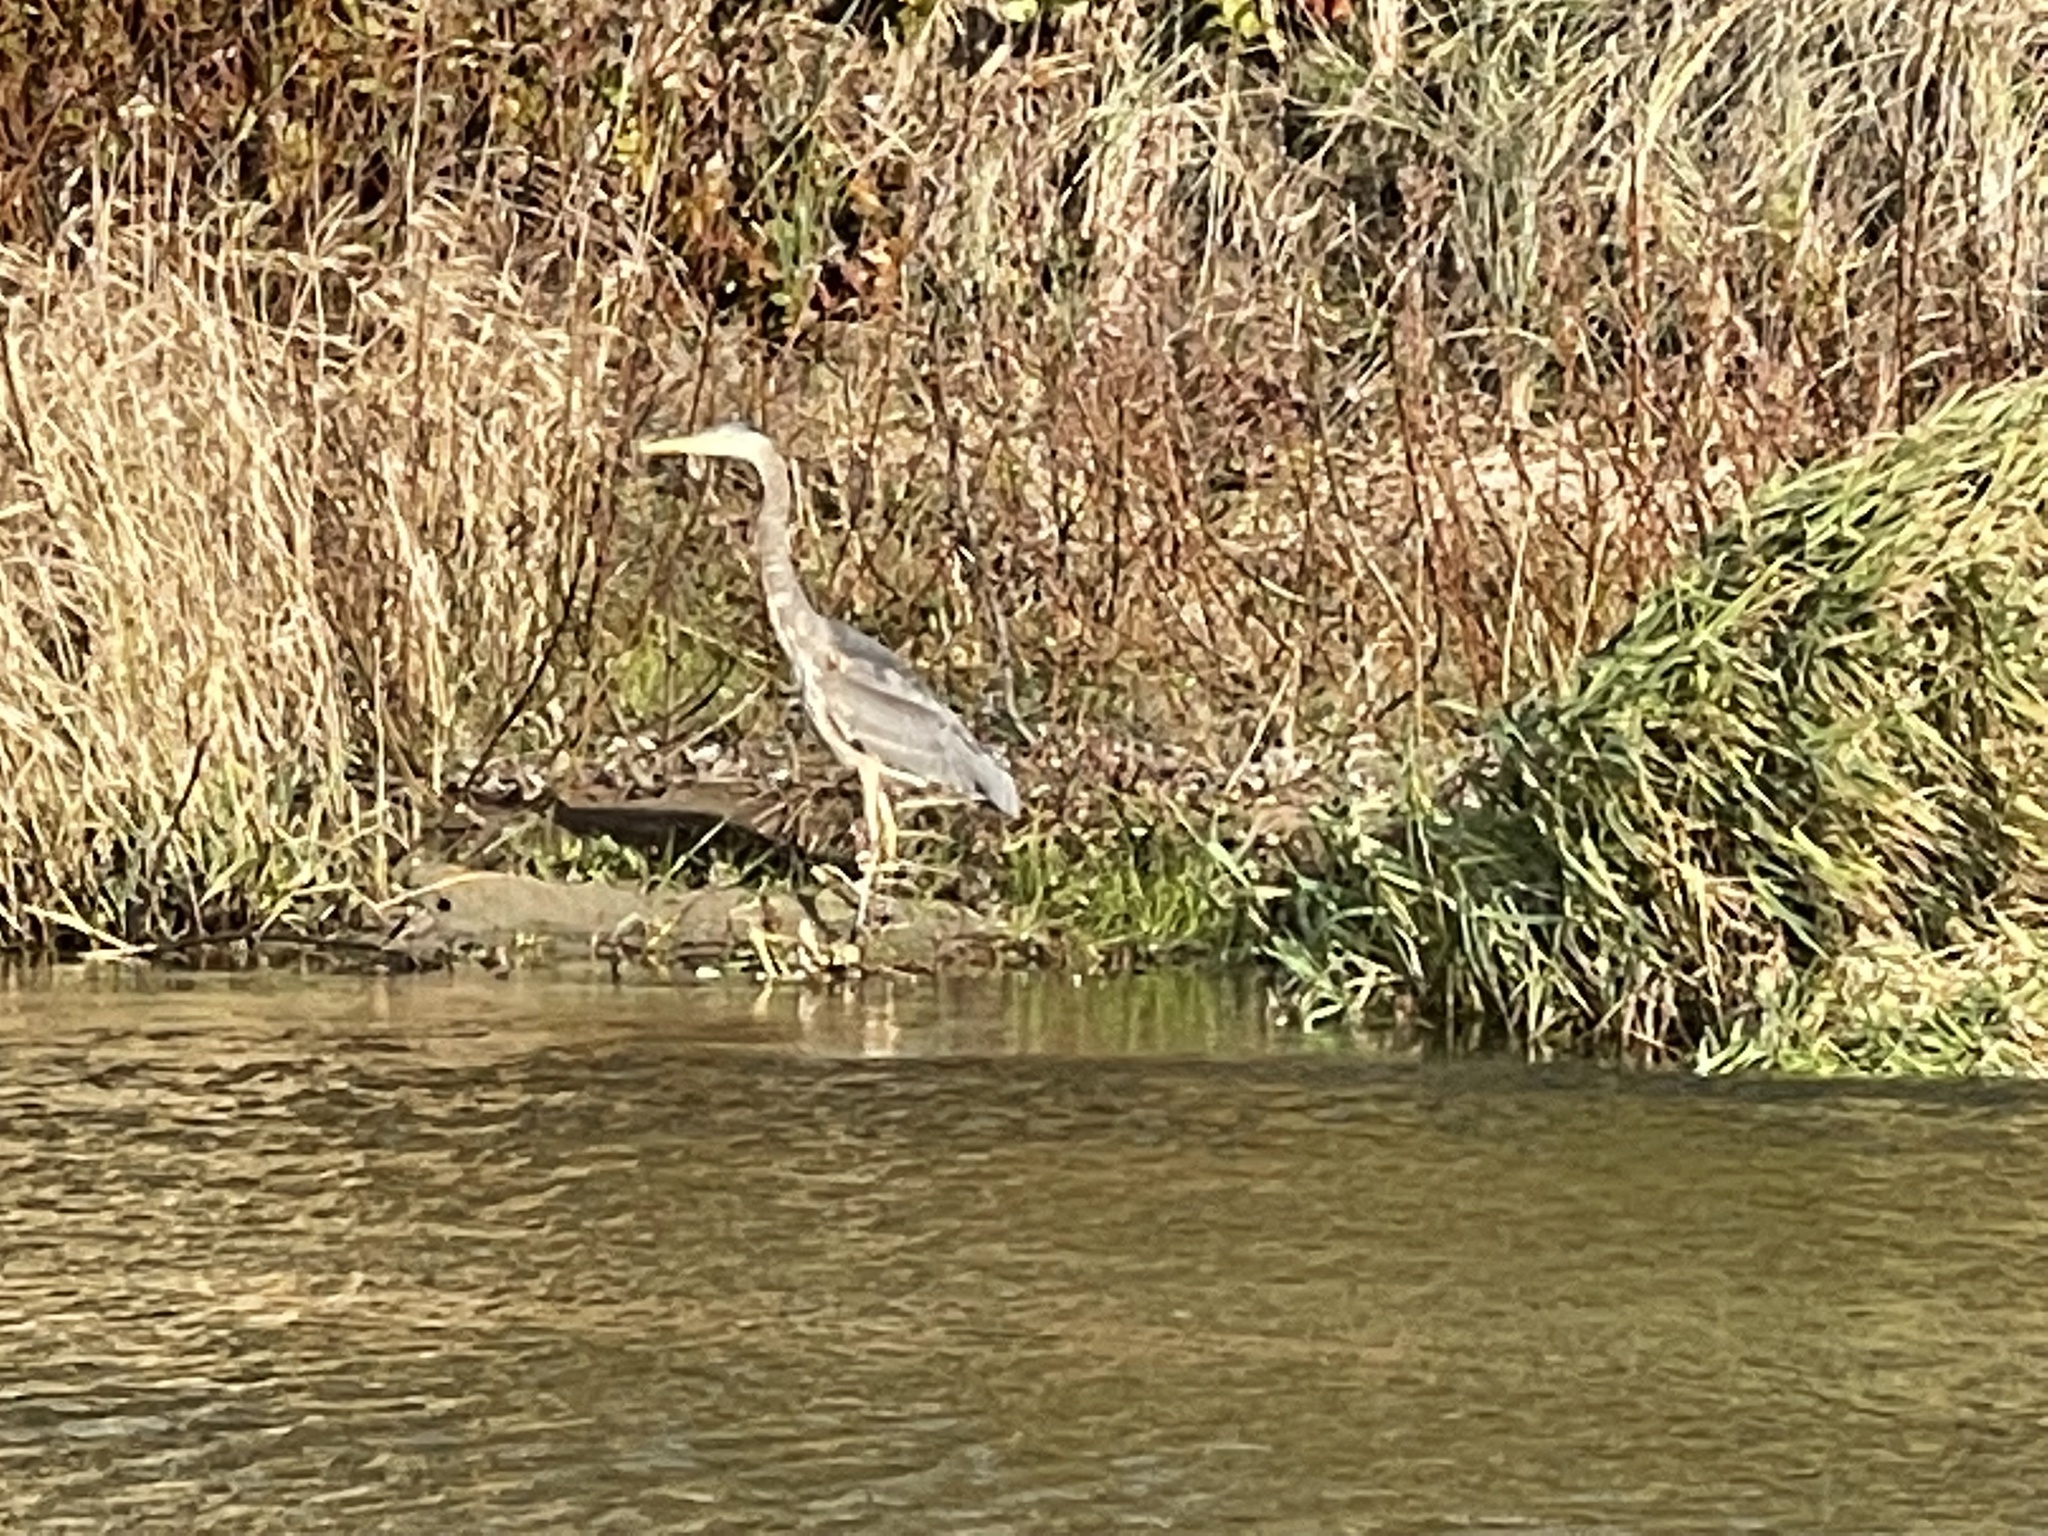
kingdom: Animalia
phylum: Chordata
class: Aves
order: Pelecaniformes
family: Ardeidae
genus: Ardea
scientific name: Ardea herodias
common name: Great blue heron
